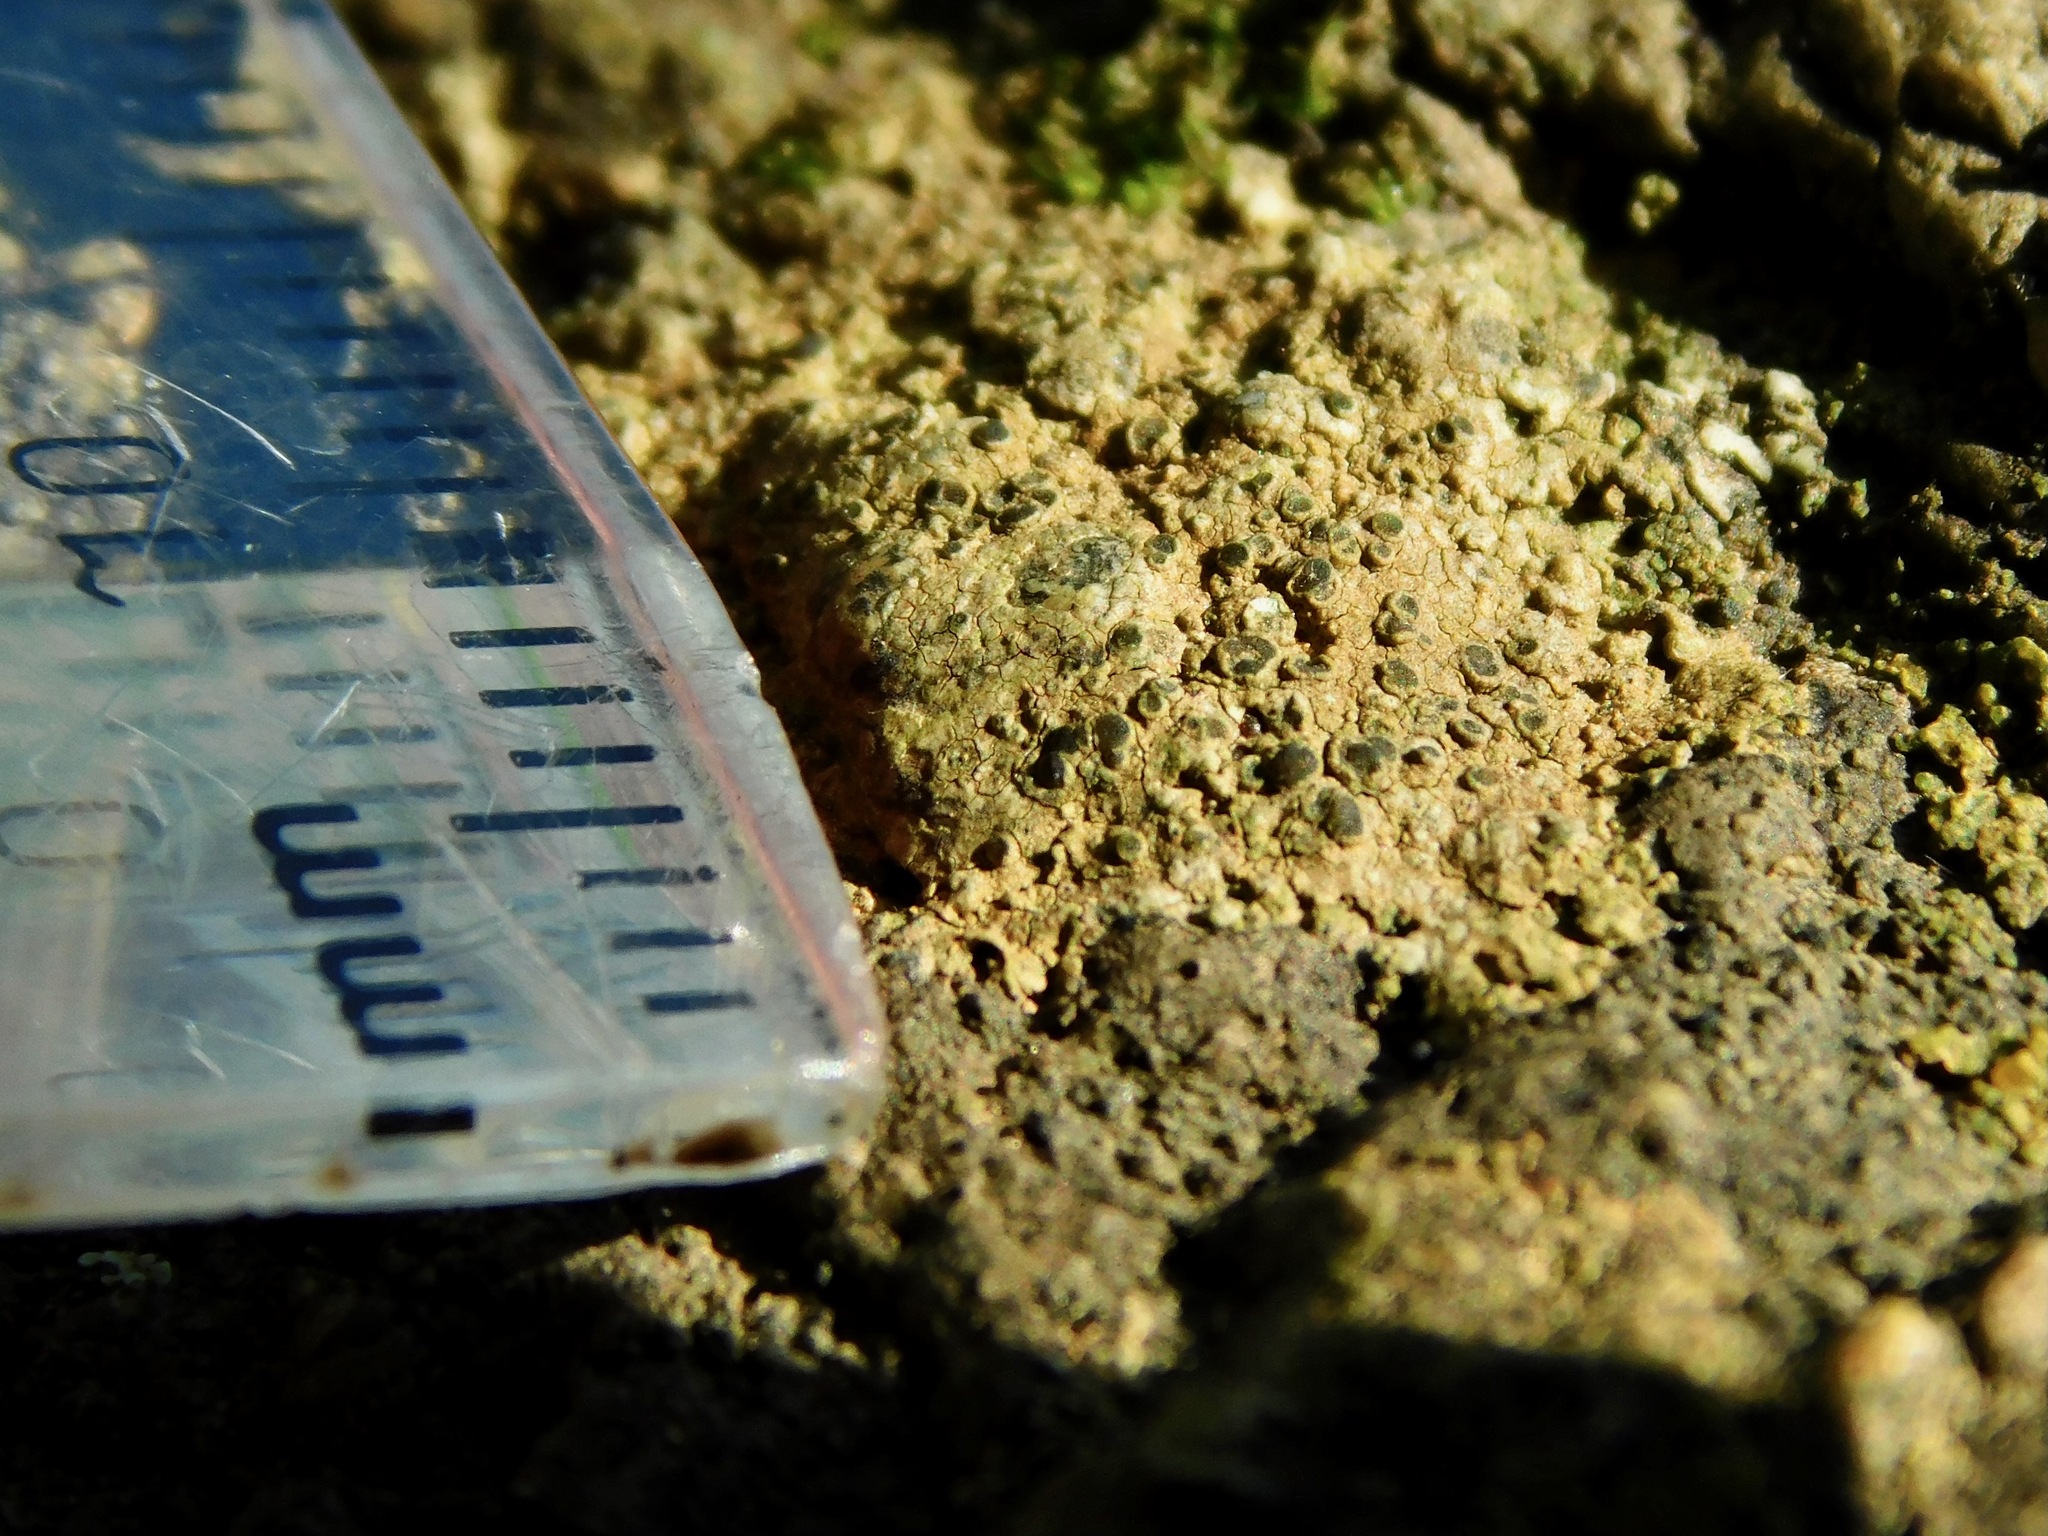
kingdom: Fungi
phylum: Ascomycota
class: Lecanoromycetes
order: Caliciales
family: Physciaceae
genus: Rinodina
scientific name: Rinodina milvina
